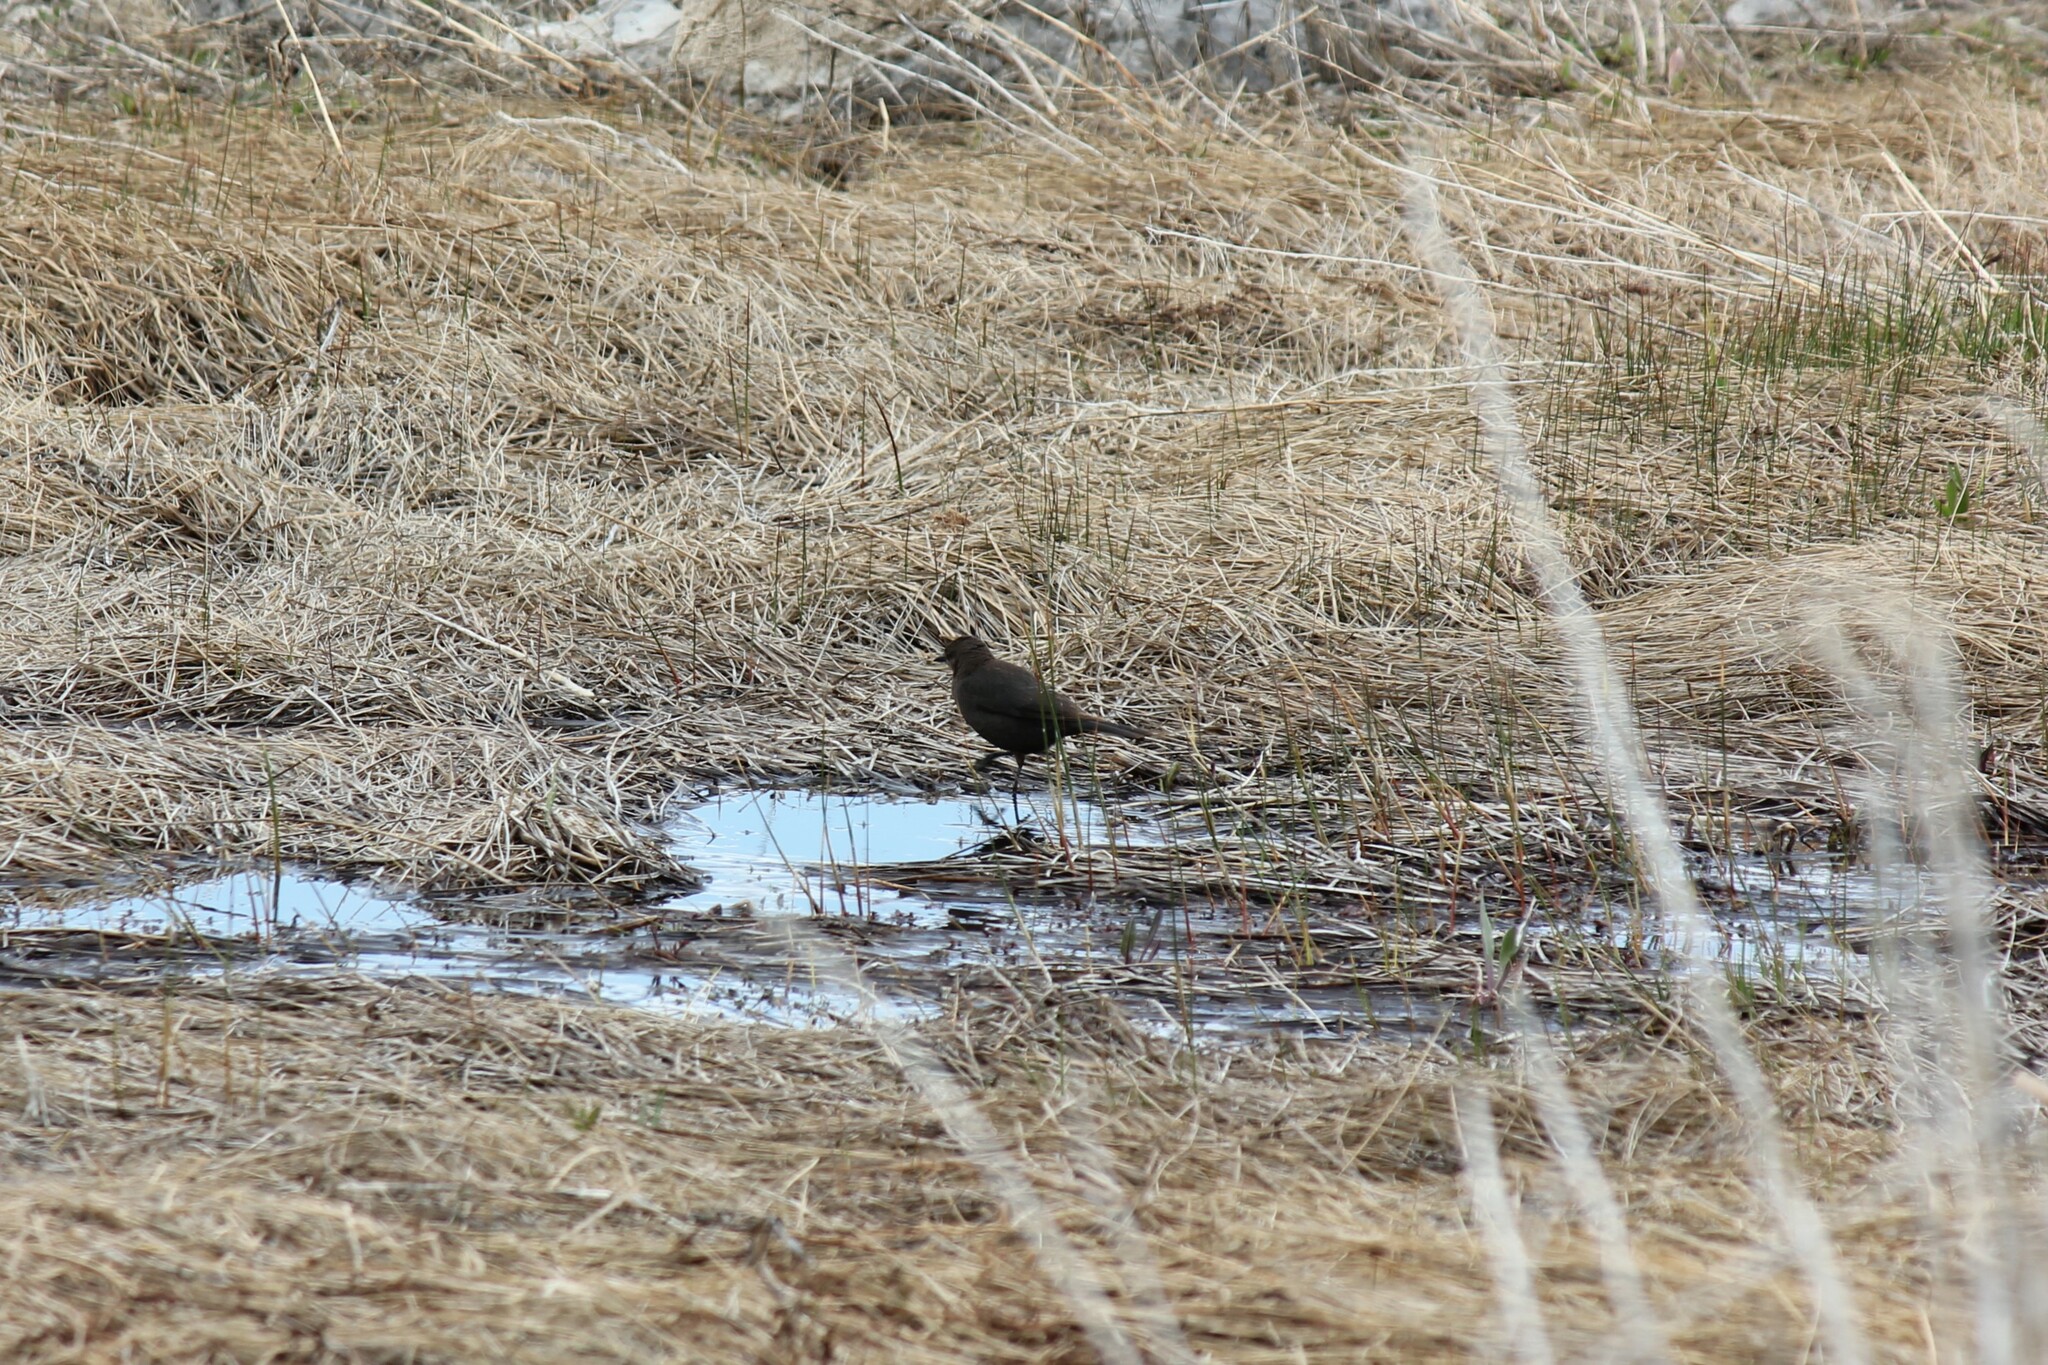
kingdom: Animalia
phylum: Chordata
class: Aves
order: Passeriformes
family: Icteridae
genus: Euphagus
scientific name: Euphagus cyanocephalus
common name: Brewer's blackbird
